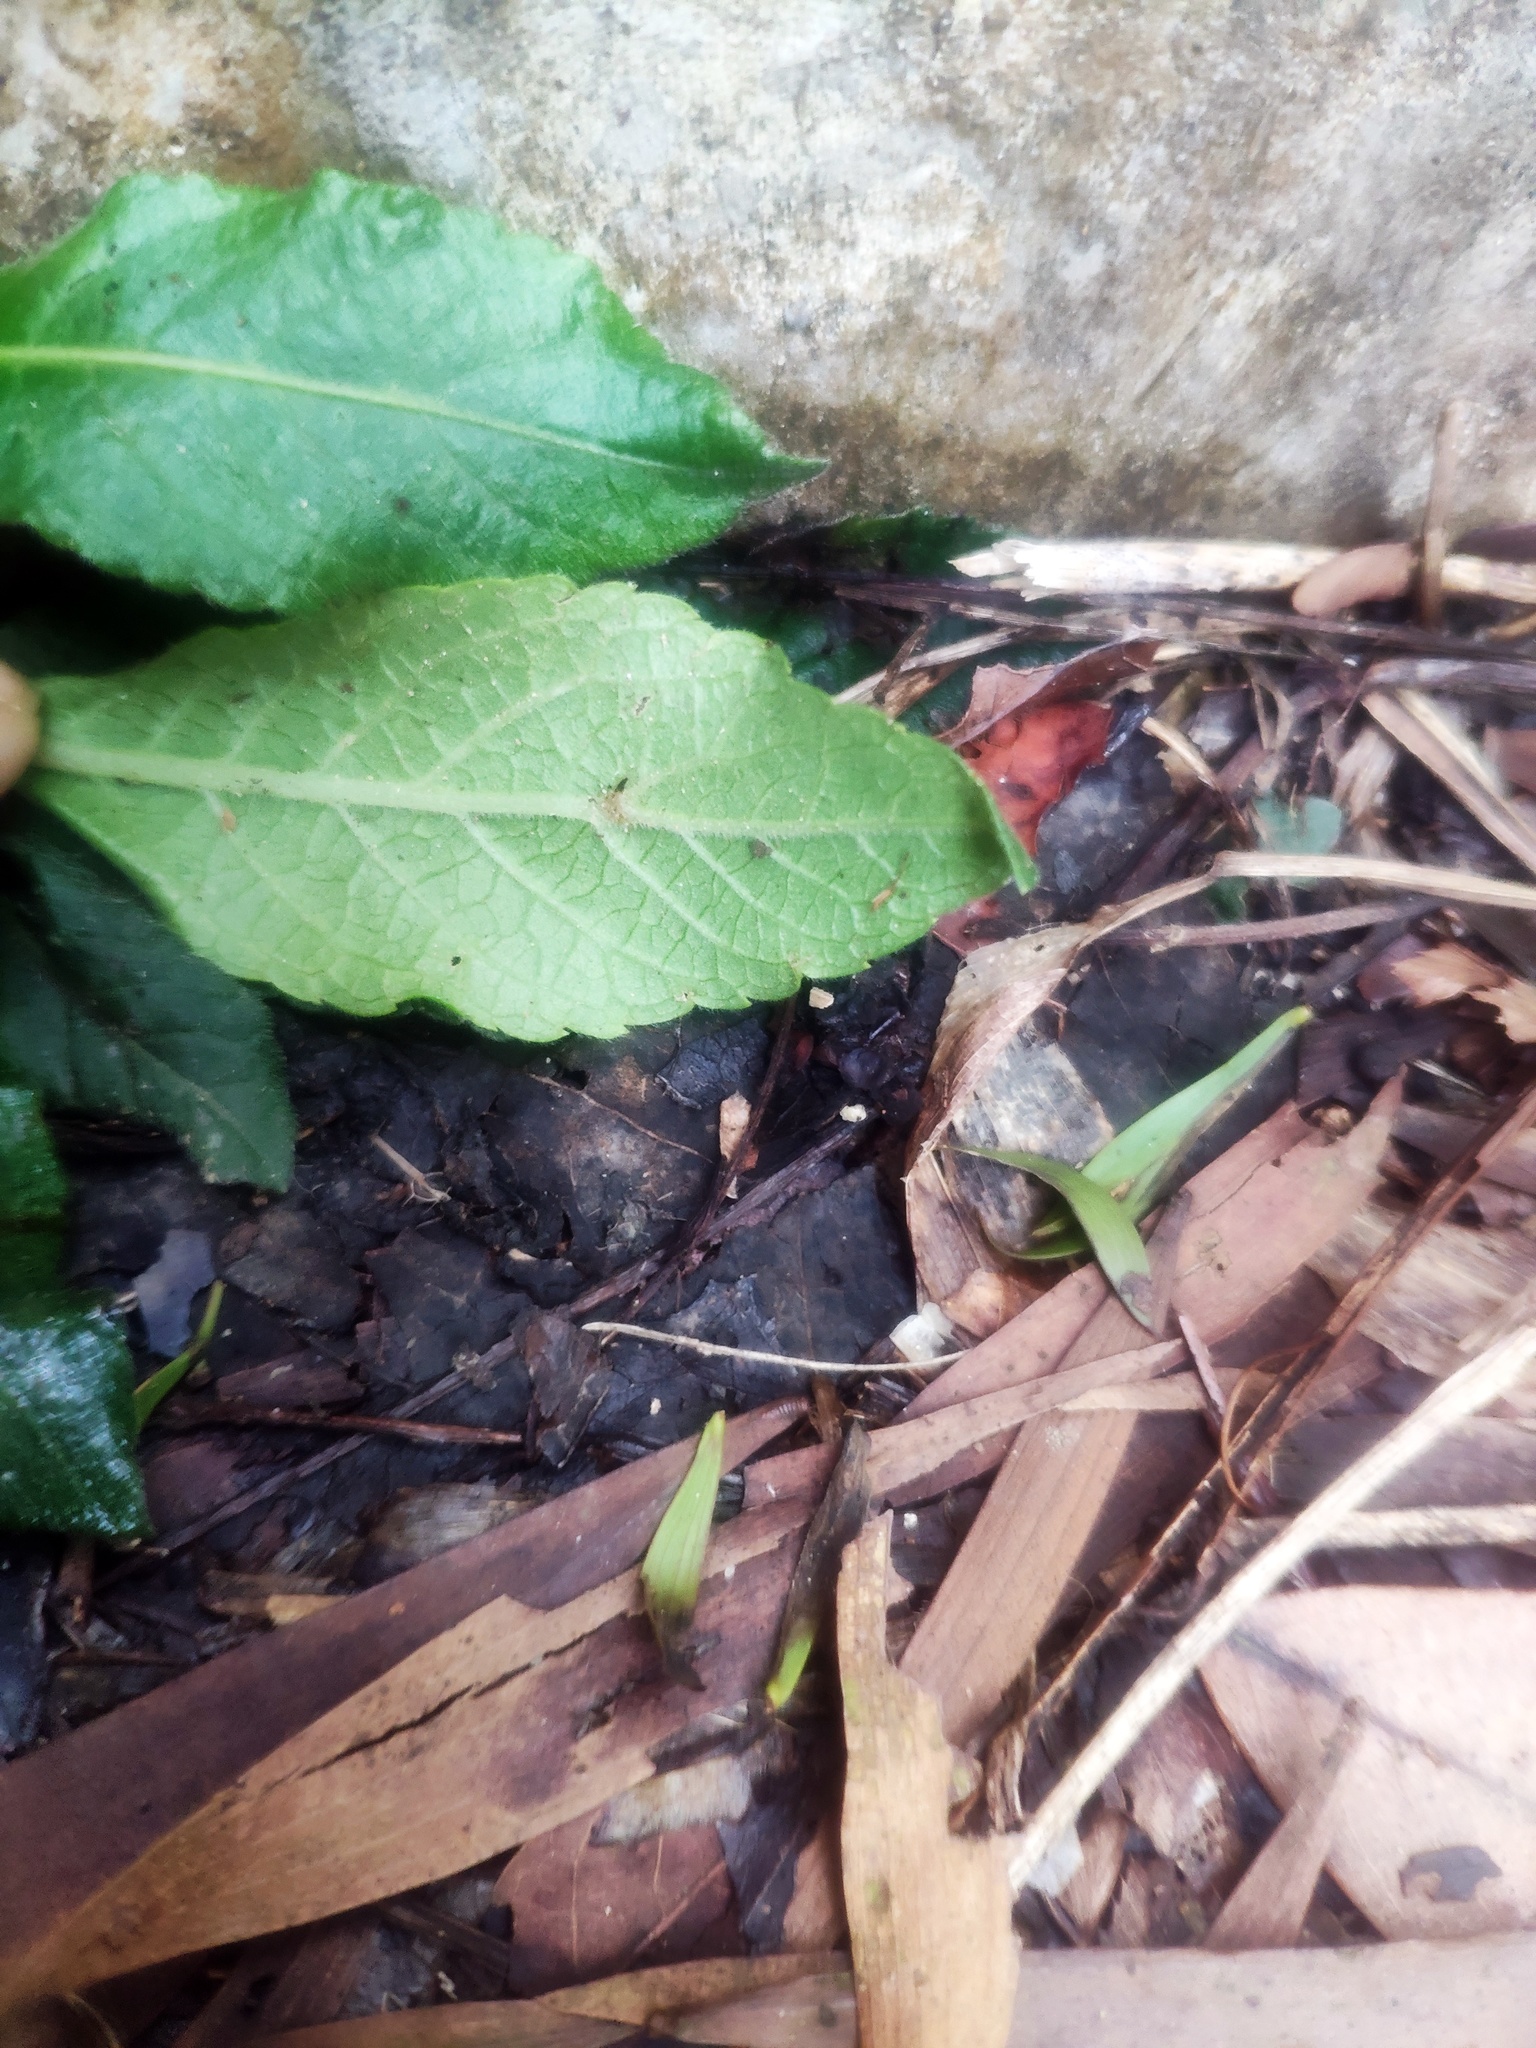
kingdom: Plantae
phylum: Tracheophyta
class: Magnoliopsida
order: Asterales
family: Asteraceae
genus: Elephantopus
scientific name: Elephantopus mollis
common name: Soft elephantsfoot
